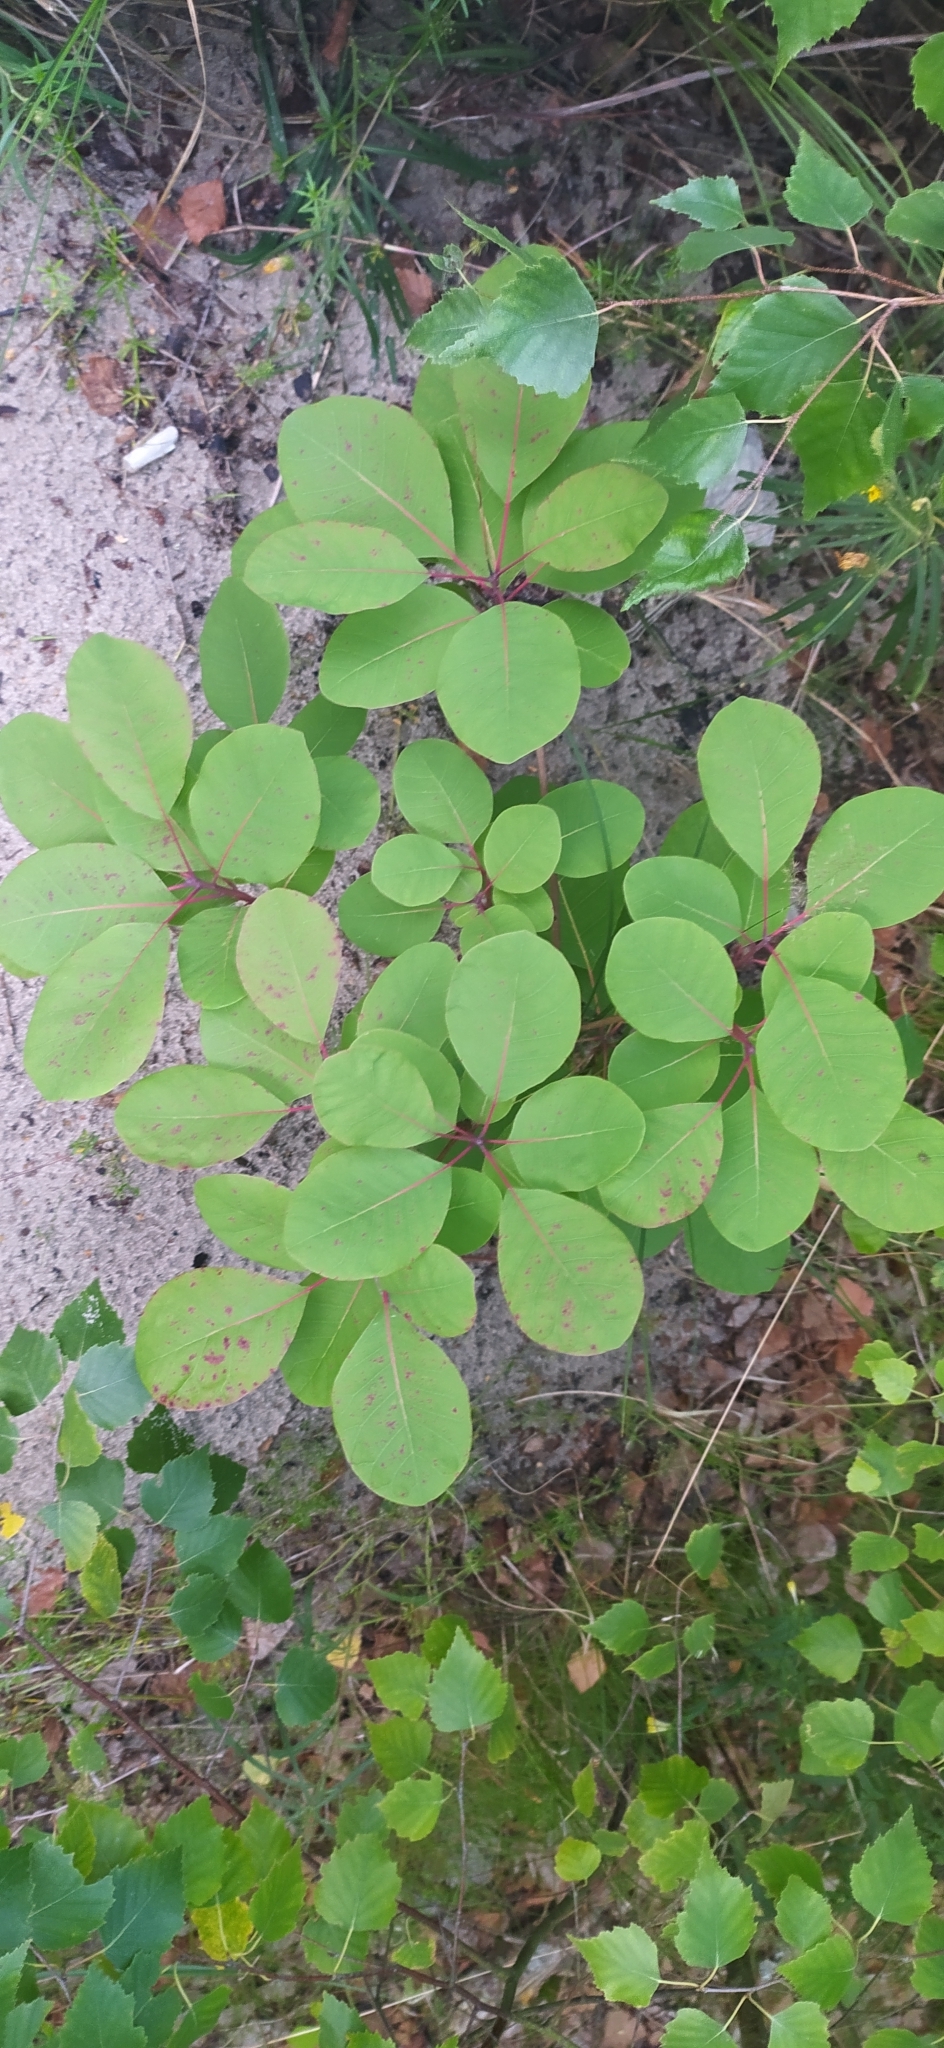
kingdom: Plantae
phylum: Tracheophyta
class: Magnoliopsida
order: Sapindales
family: Anacardiaceae
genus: Cotinus
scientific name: Cotinus coggygria
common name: Smoke-tree
